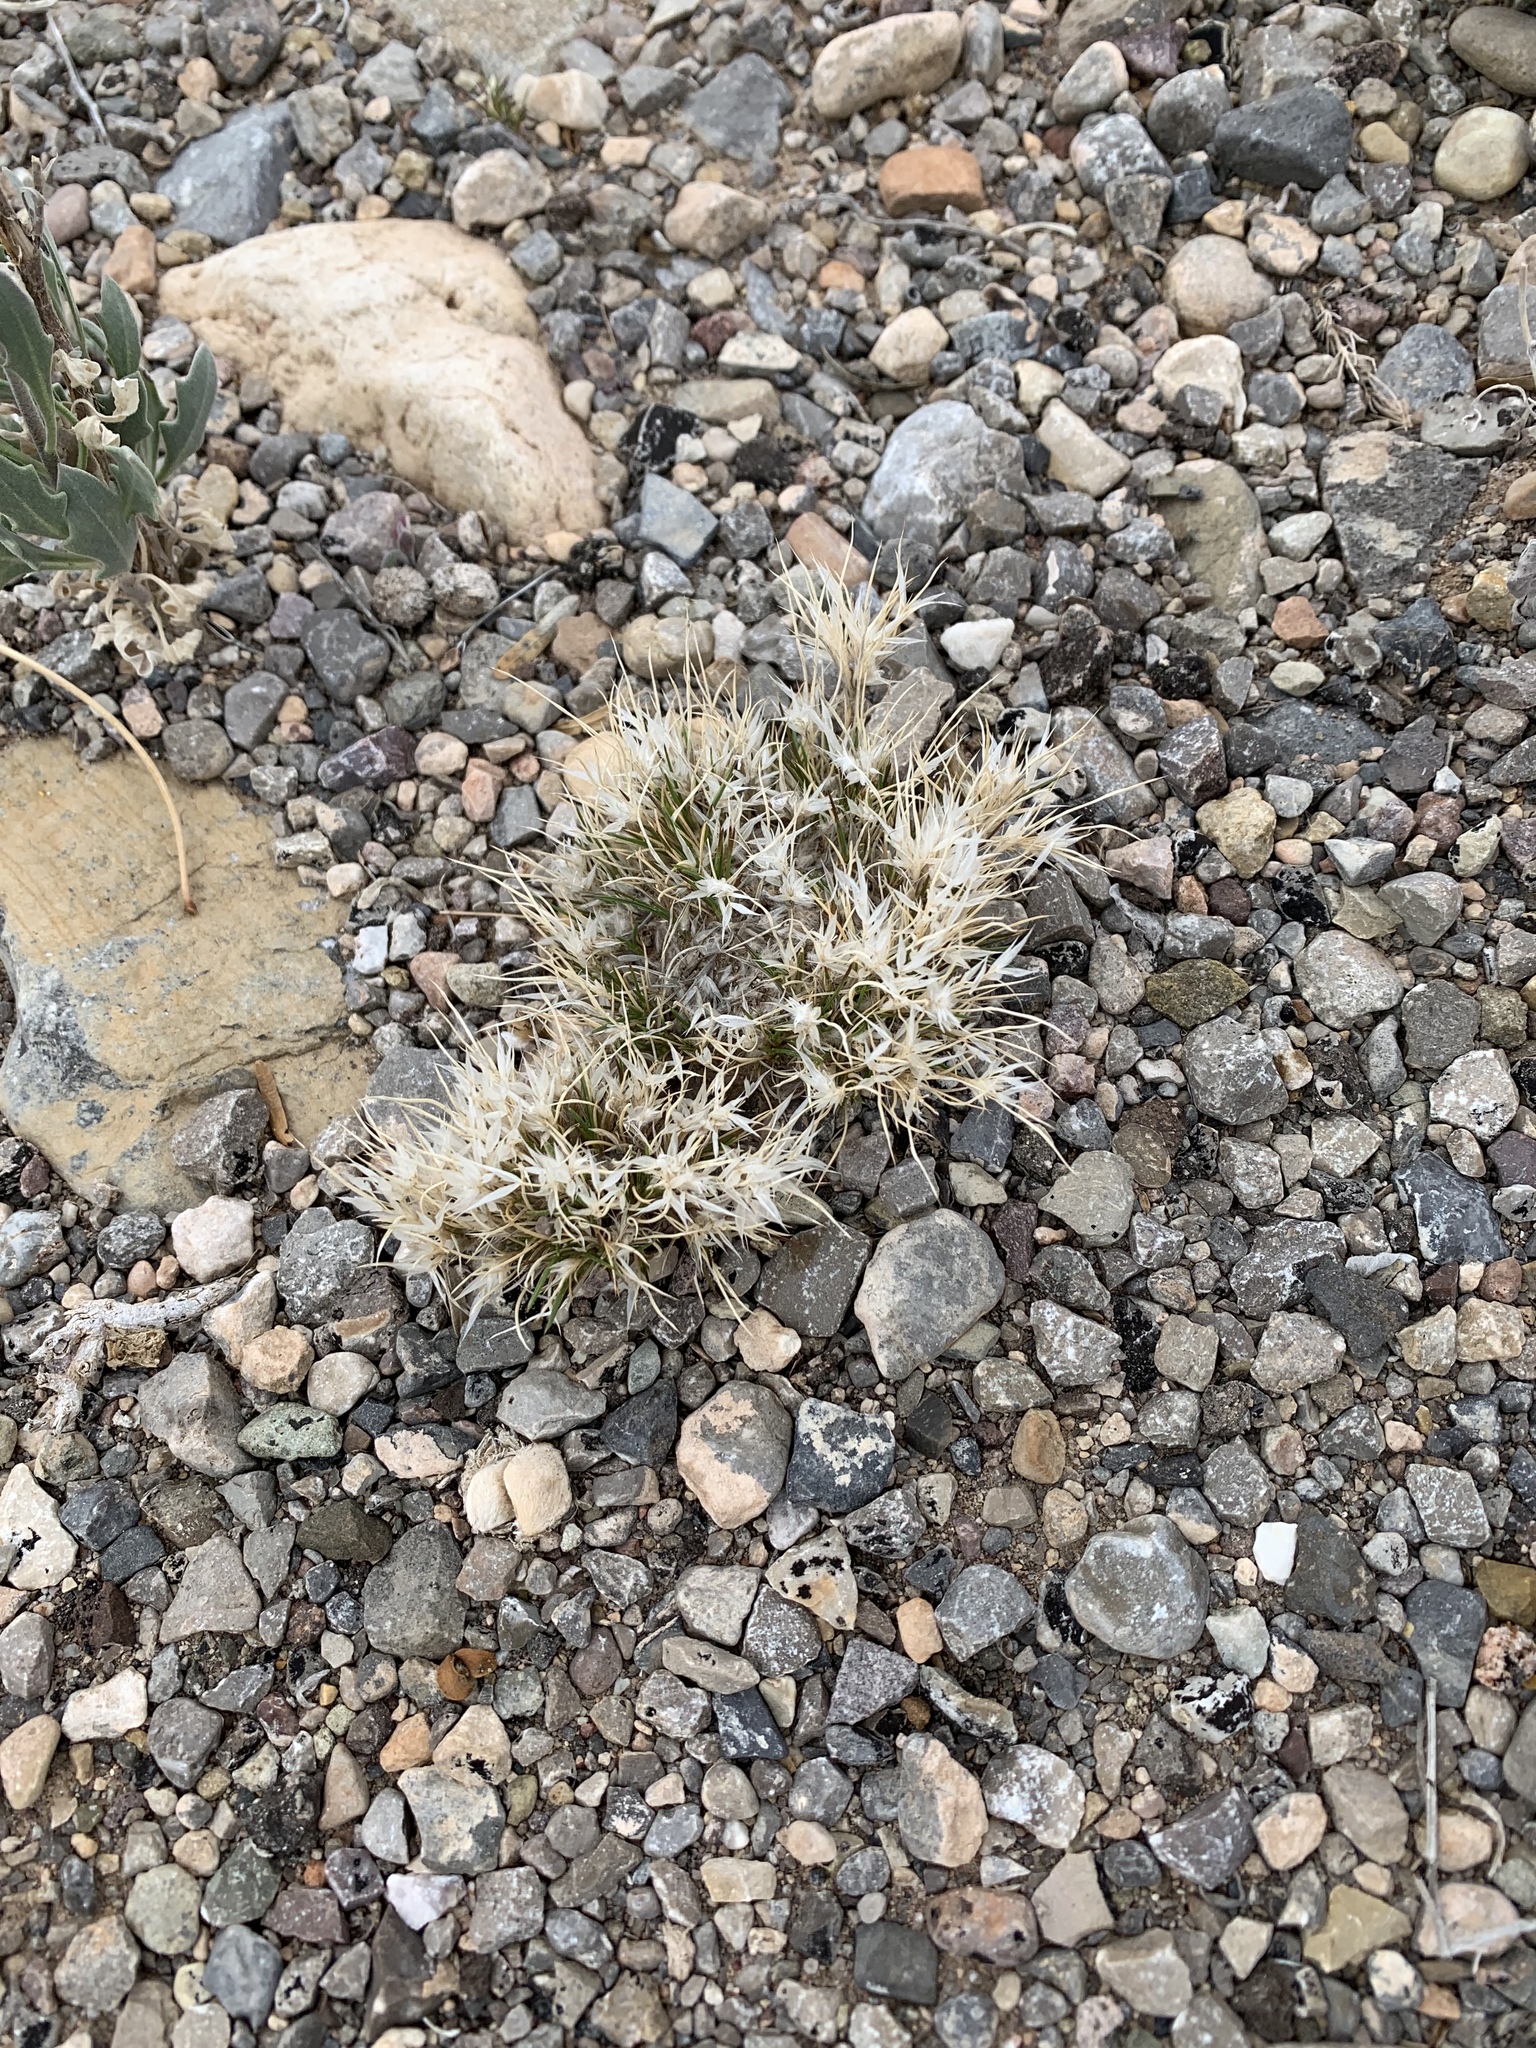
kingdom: Plantae
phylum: Tracheophyta
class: Liliopsida
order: Poales
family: Poaceae
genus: Dasyochloa
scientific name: Dasyochloa pulchella
